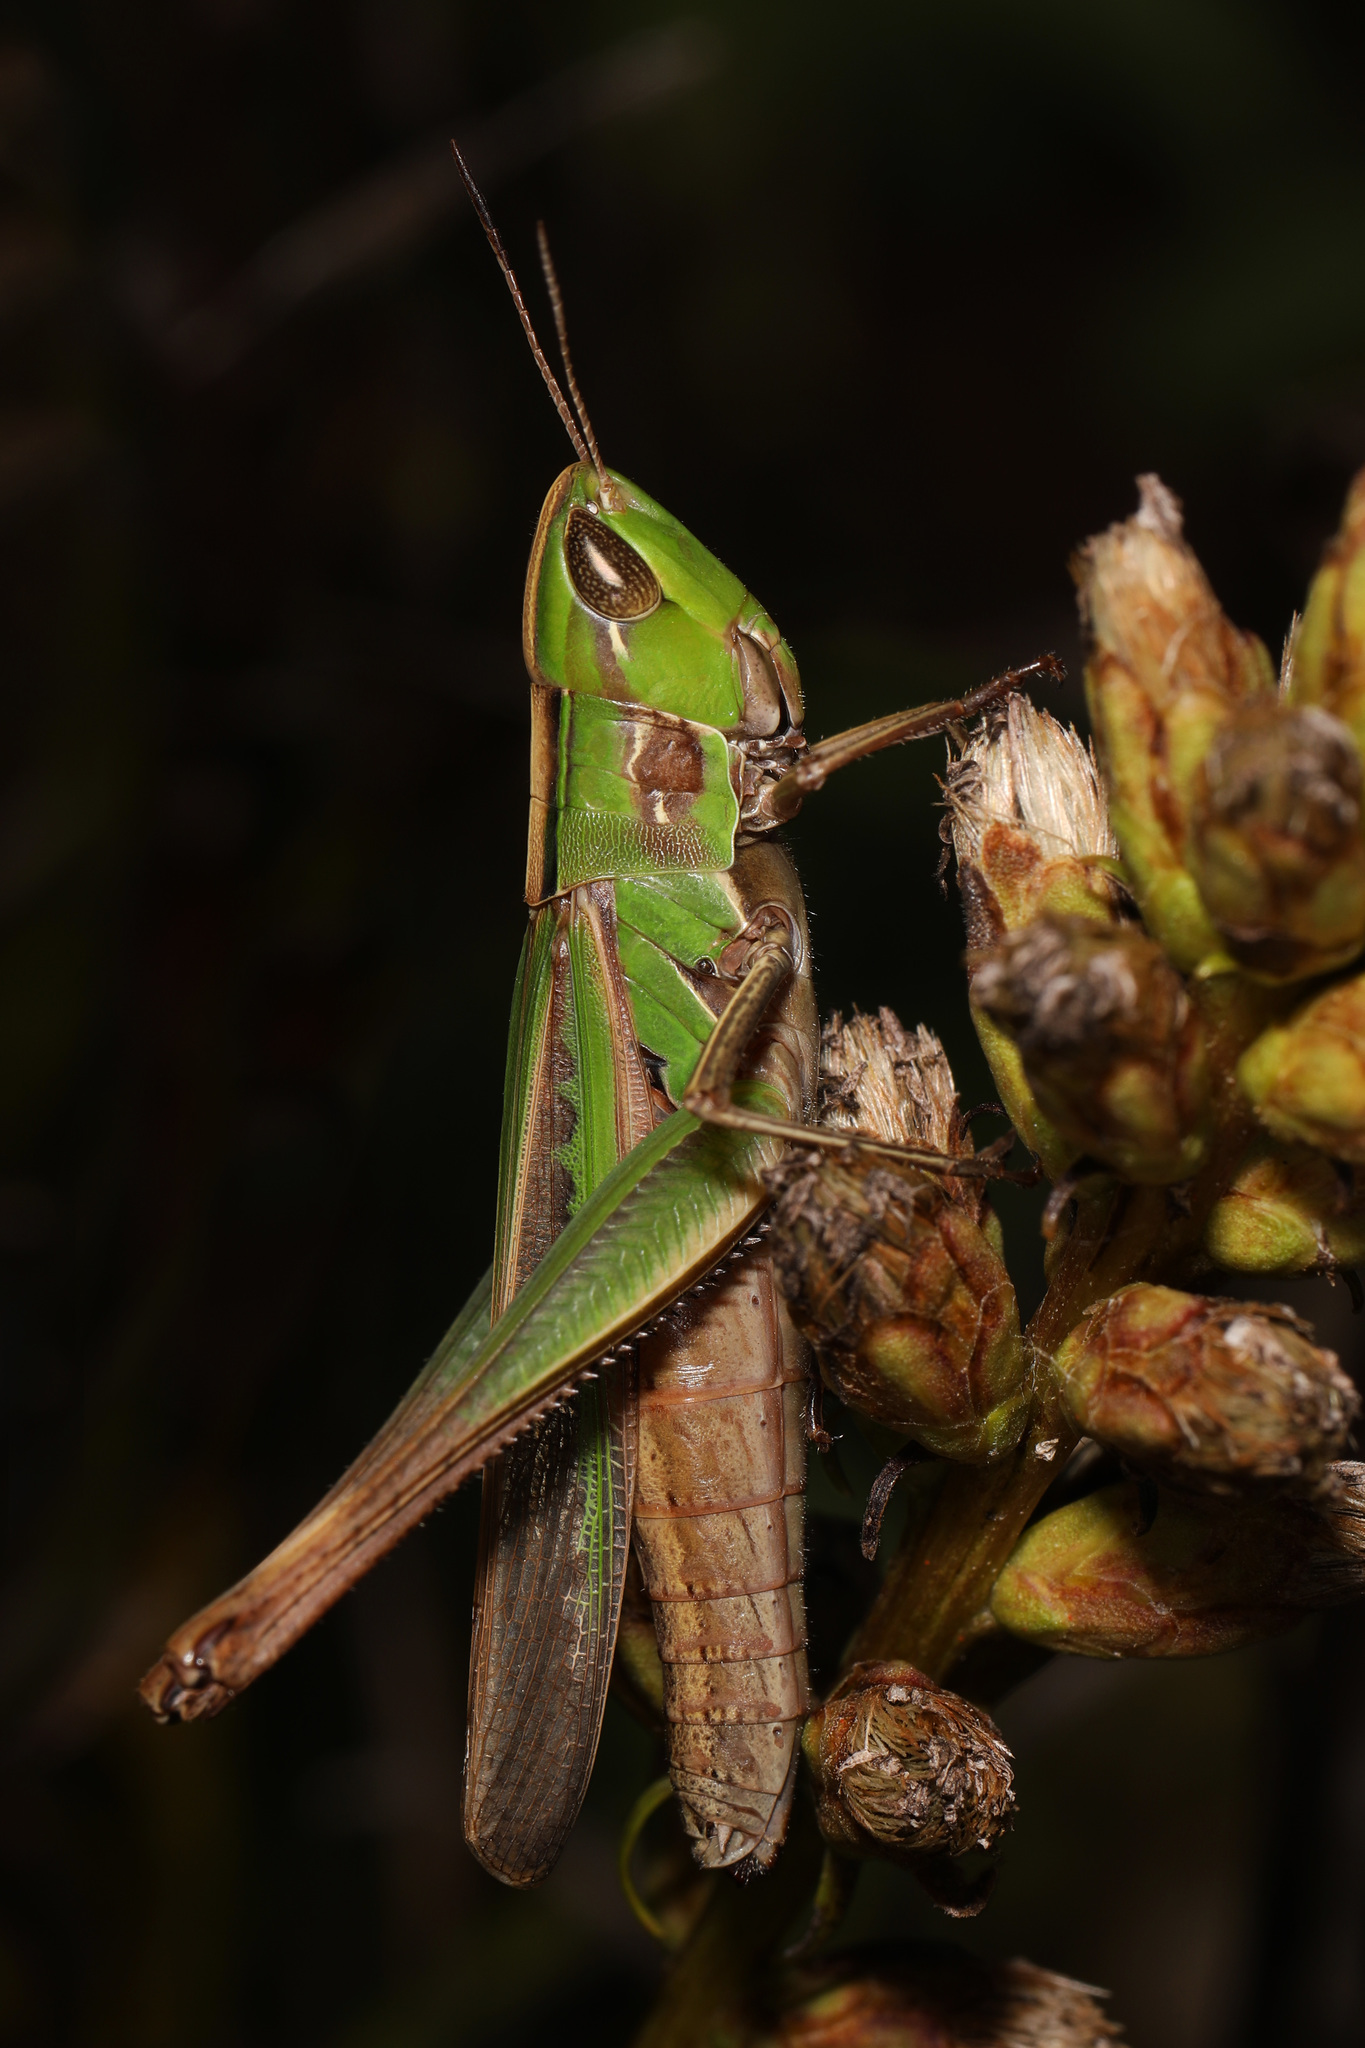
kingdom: Animalia
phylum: Arthropoda
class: Insecta
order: Orthoptera
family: Acrididae
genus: Syrbula
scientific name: Syrbula admirabilis
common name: Handsome grasshopper
